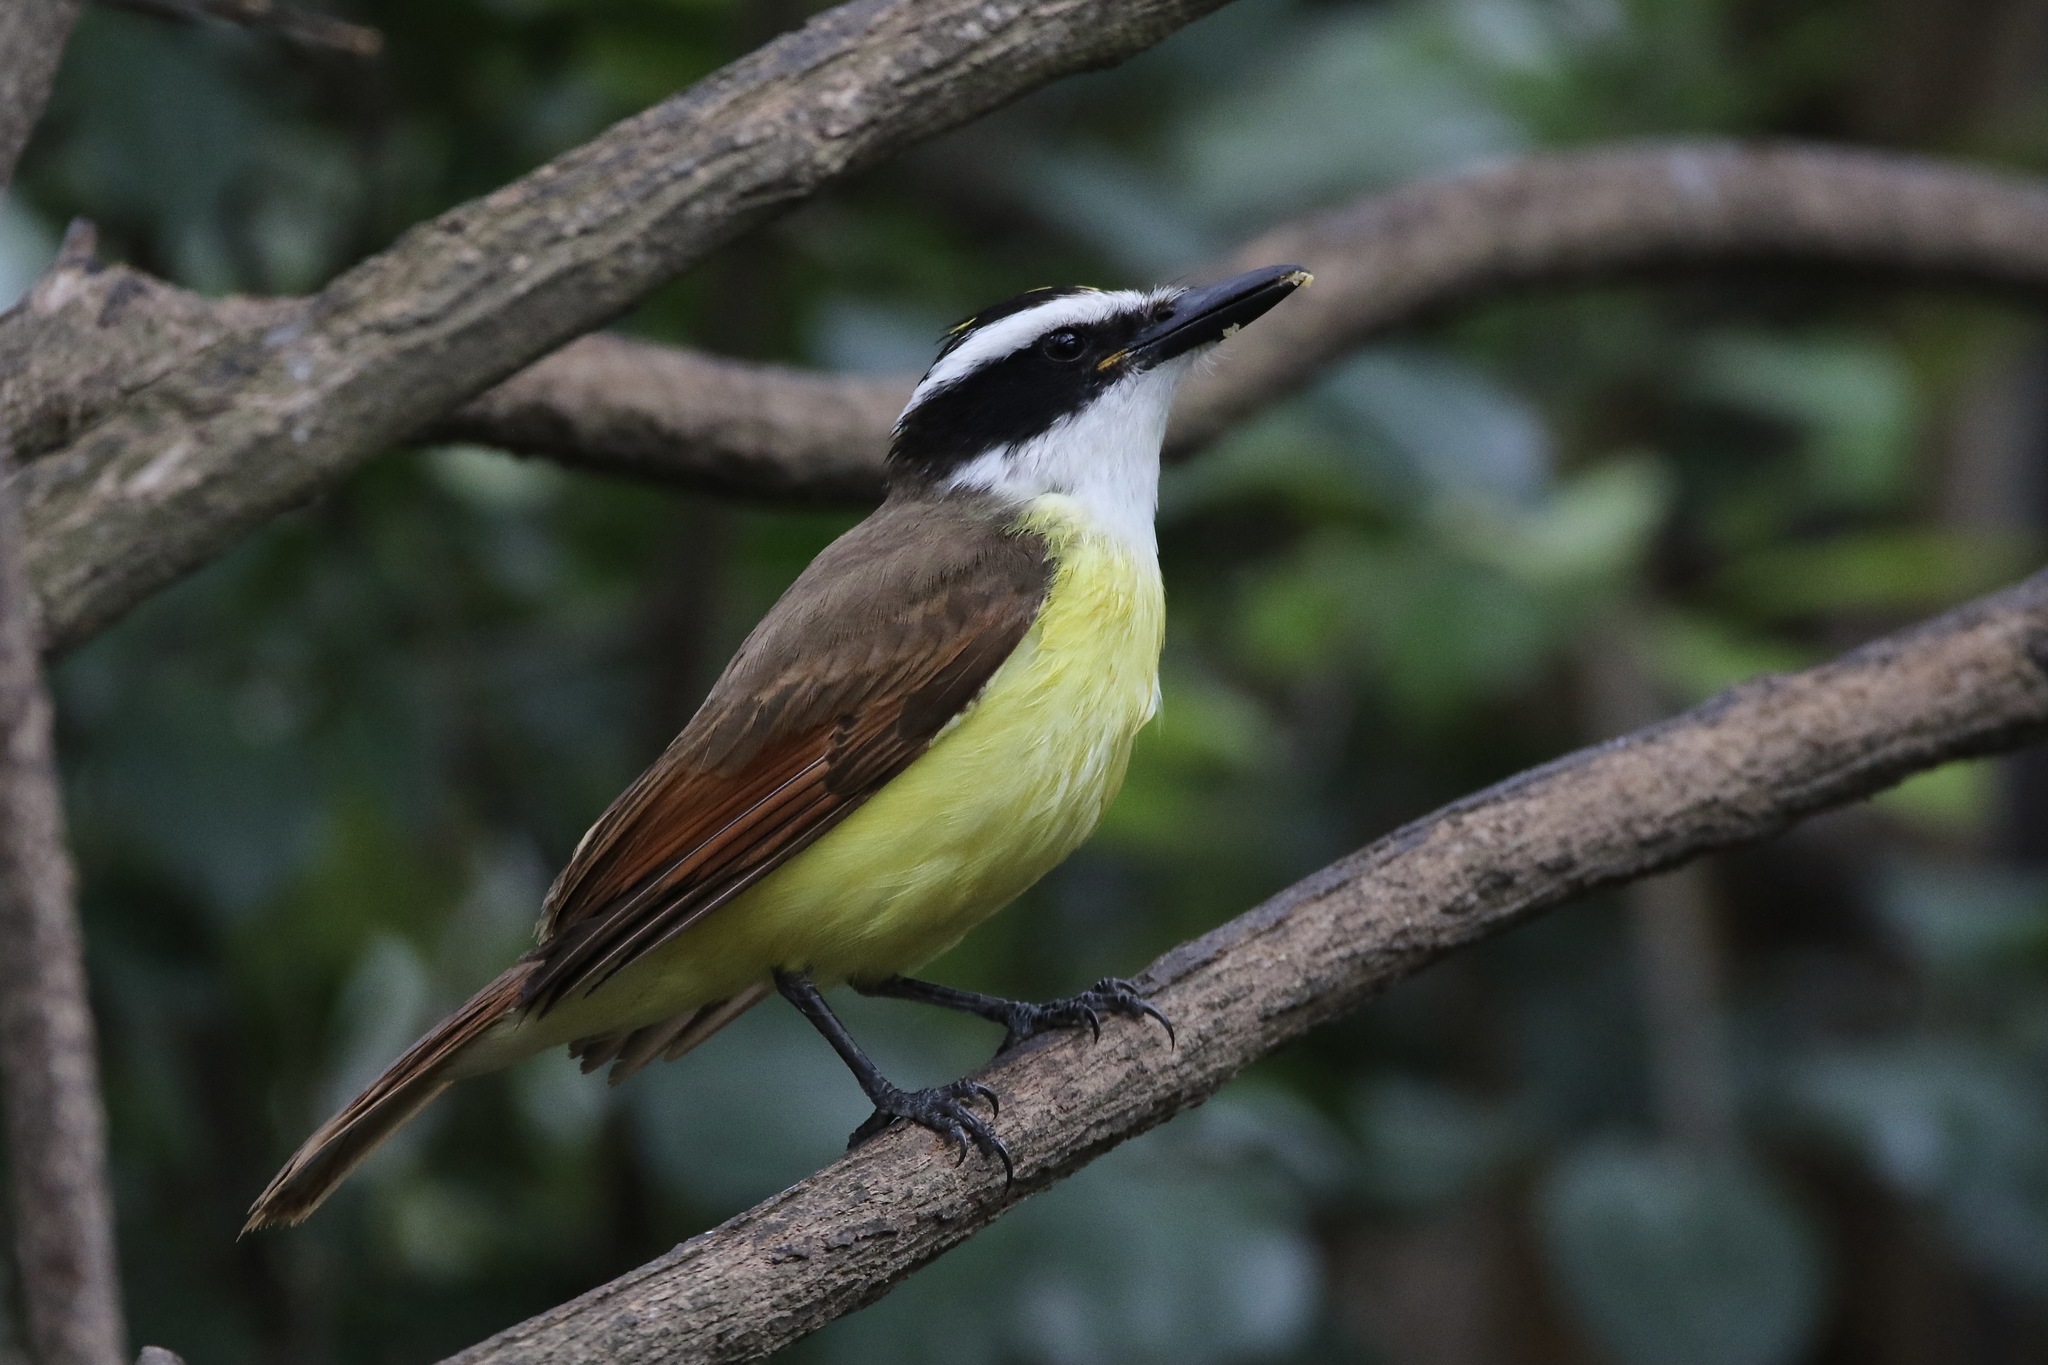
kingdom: Animalia
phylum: Chordata
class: Aves
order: Passeriformes
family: Tyrannidae
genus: Pitangus
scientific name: Pitangus sulphuratus
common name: Great kiskadee
